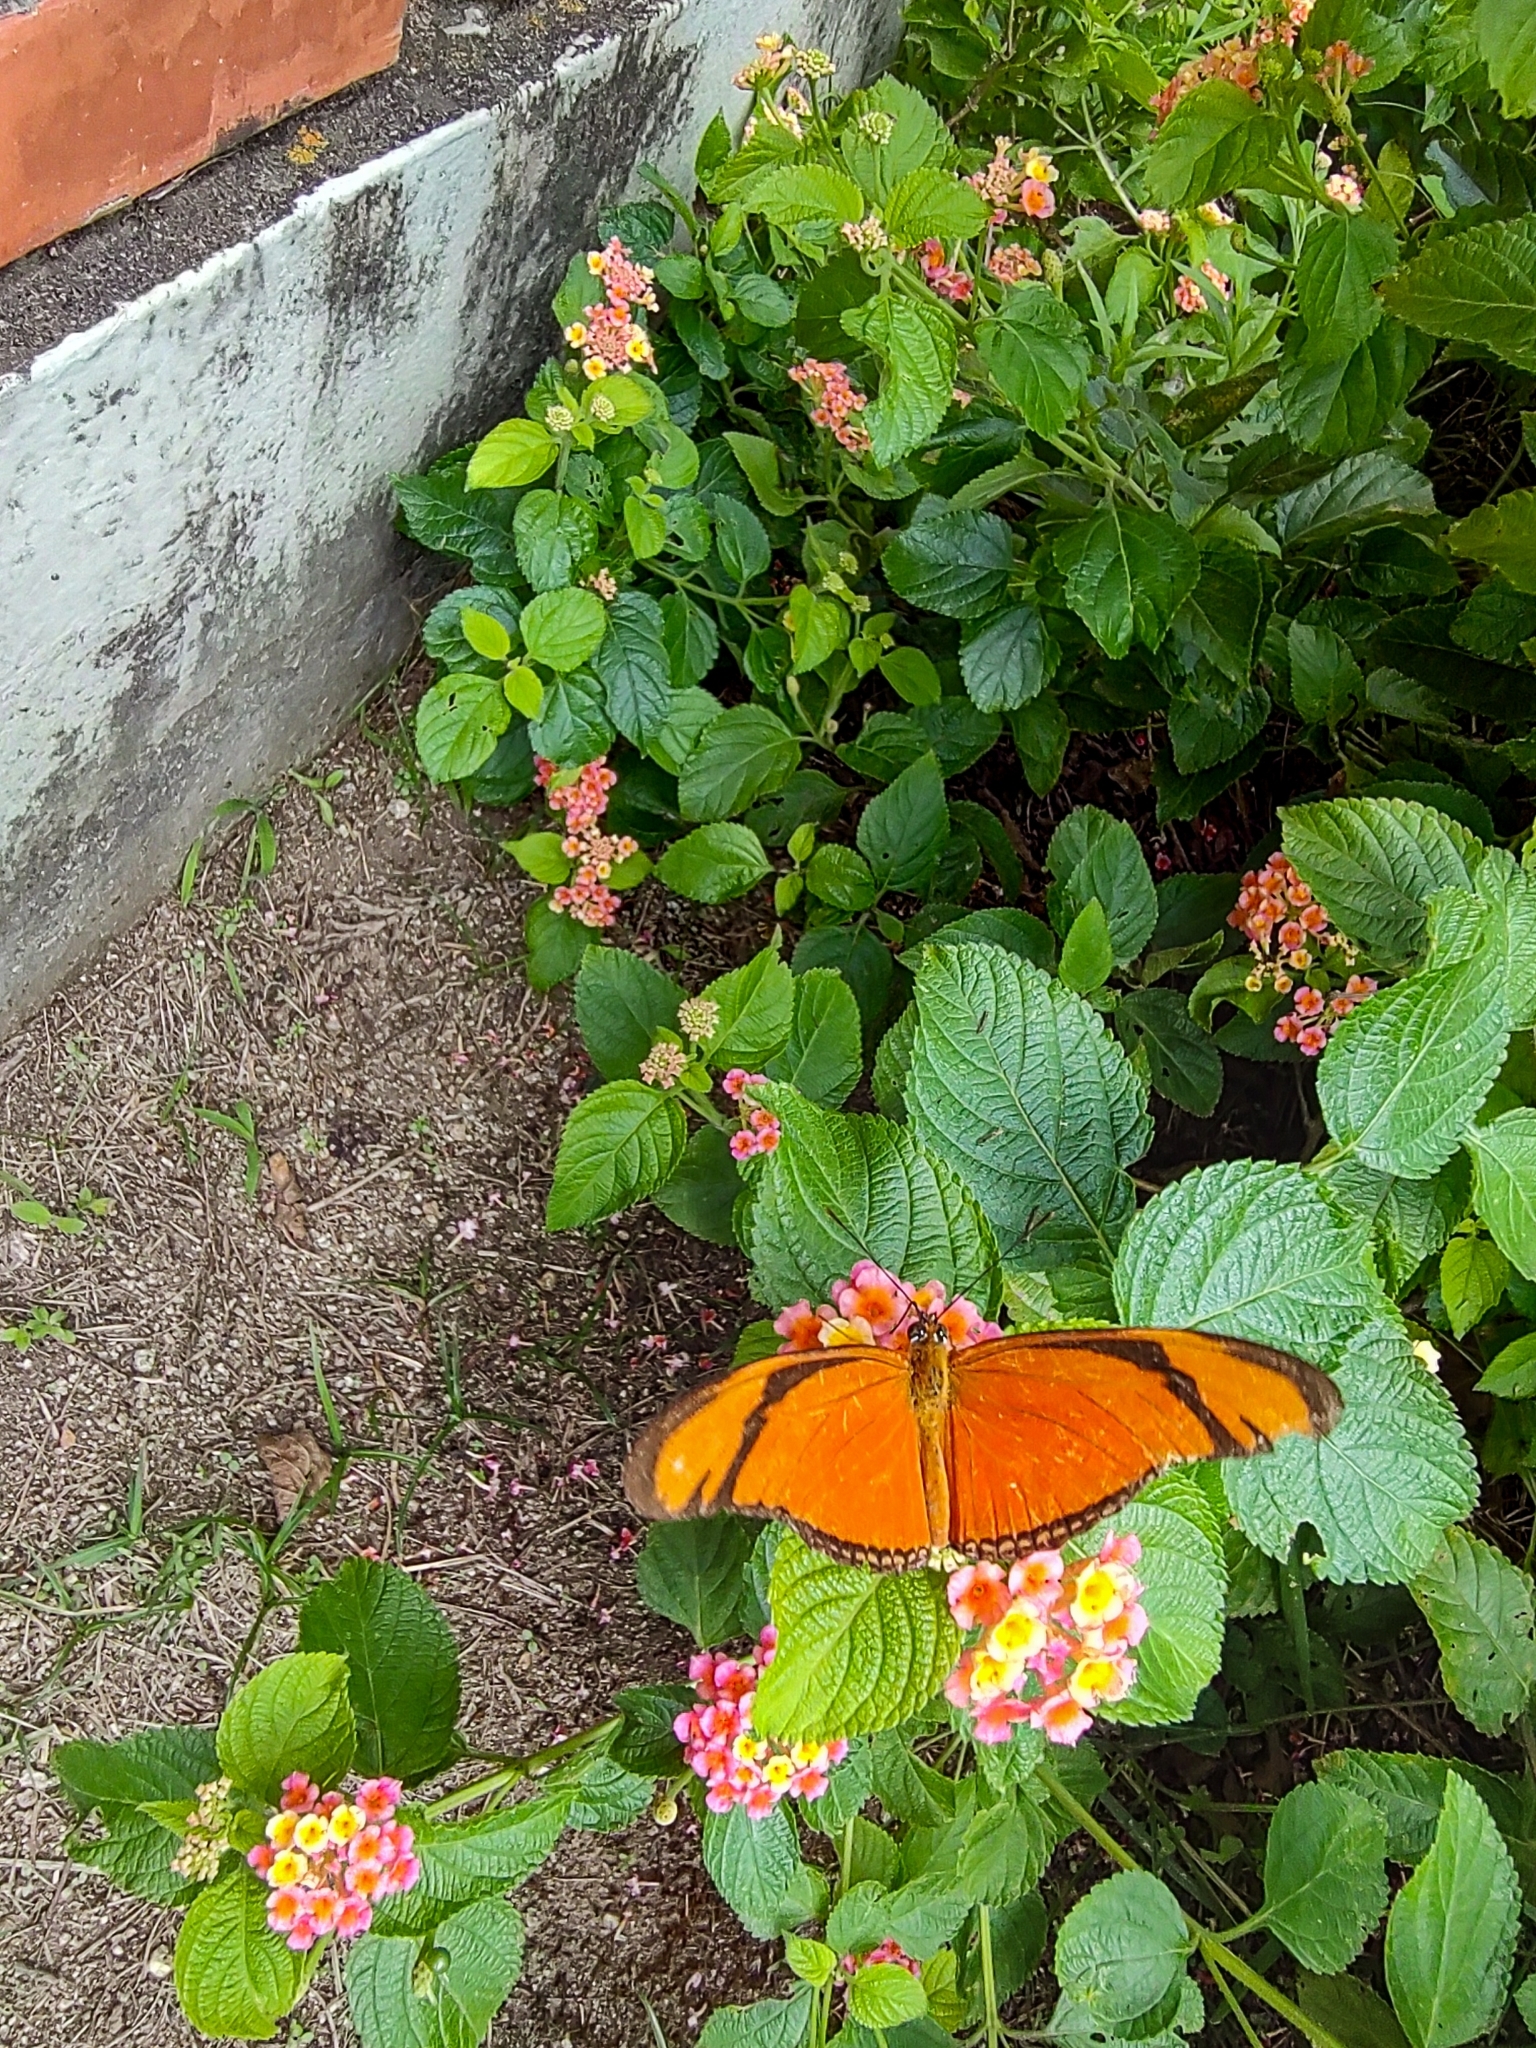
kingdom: Animalia
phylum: Arthropoda
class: Insecta
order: Lepidoptera
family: Nymphalidae
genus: Dryas
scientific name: Dryas iulia
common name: Flambeau
